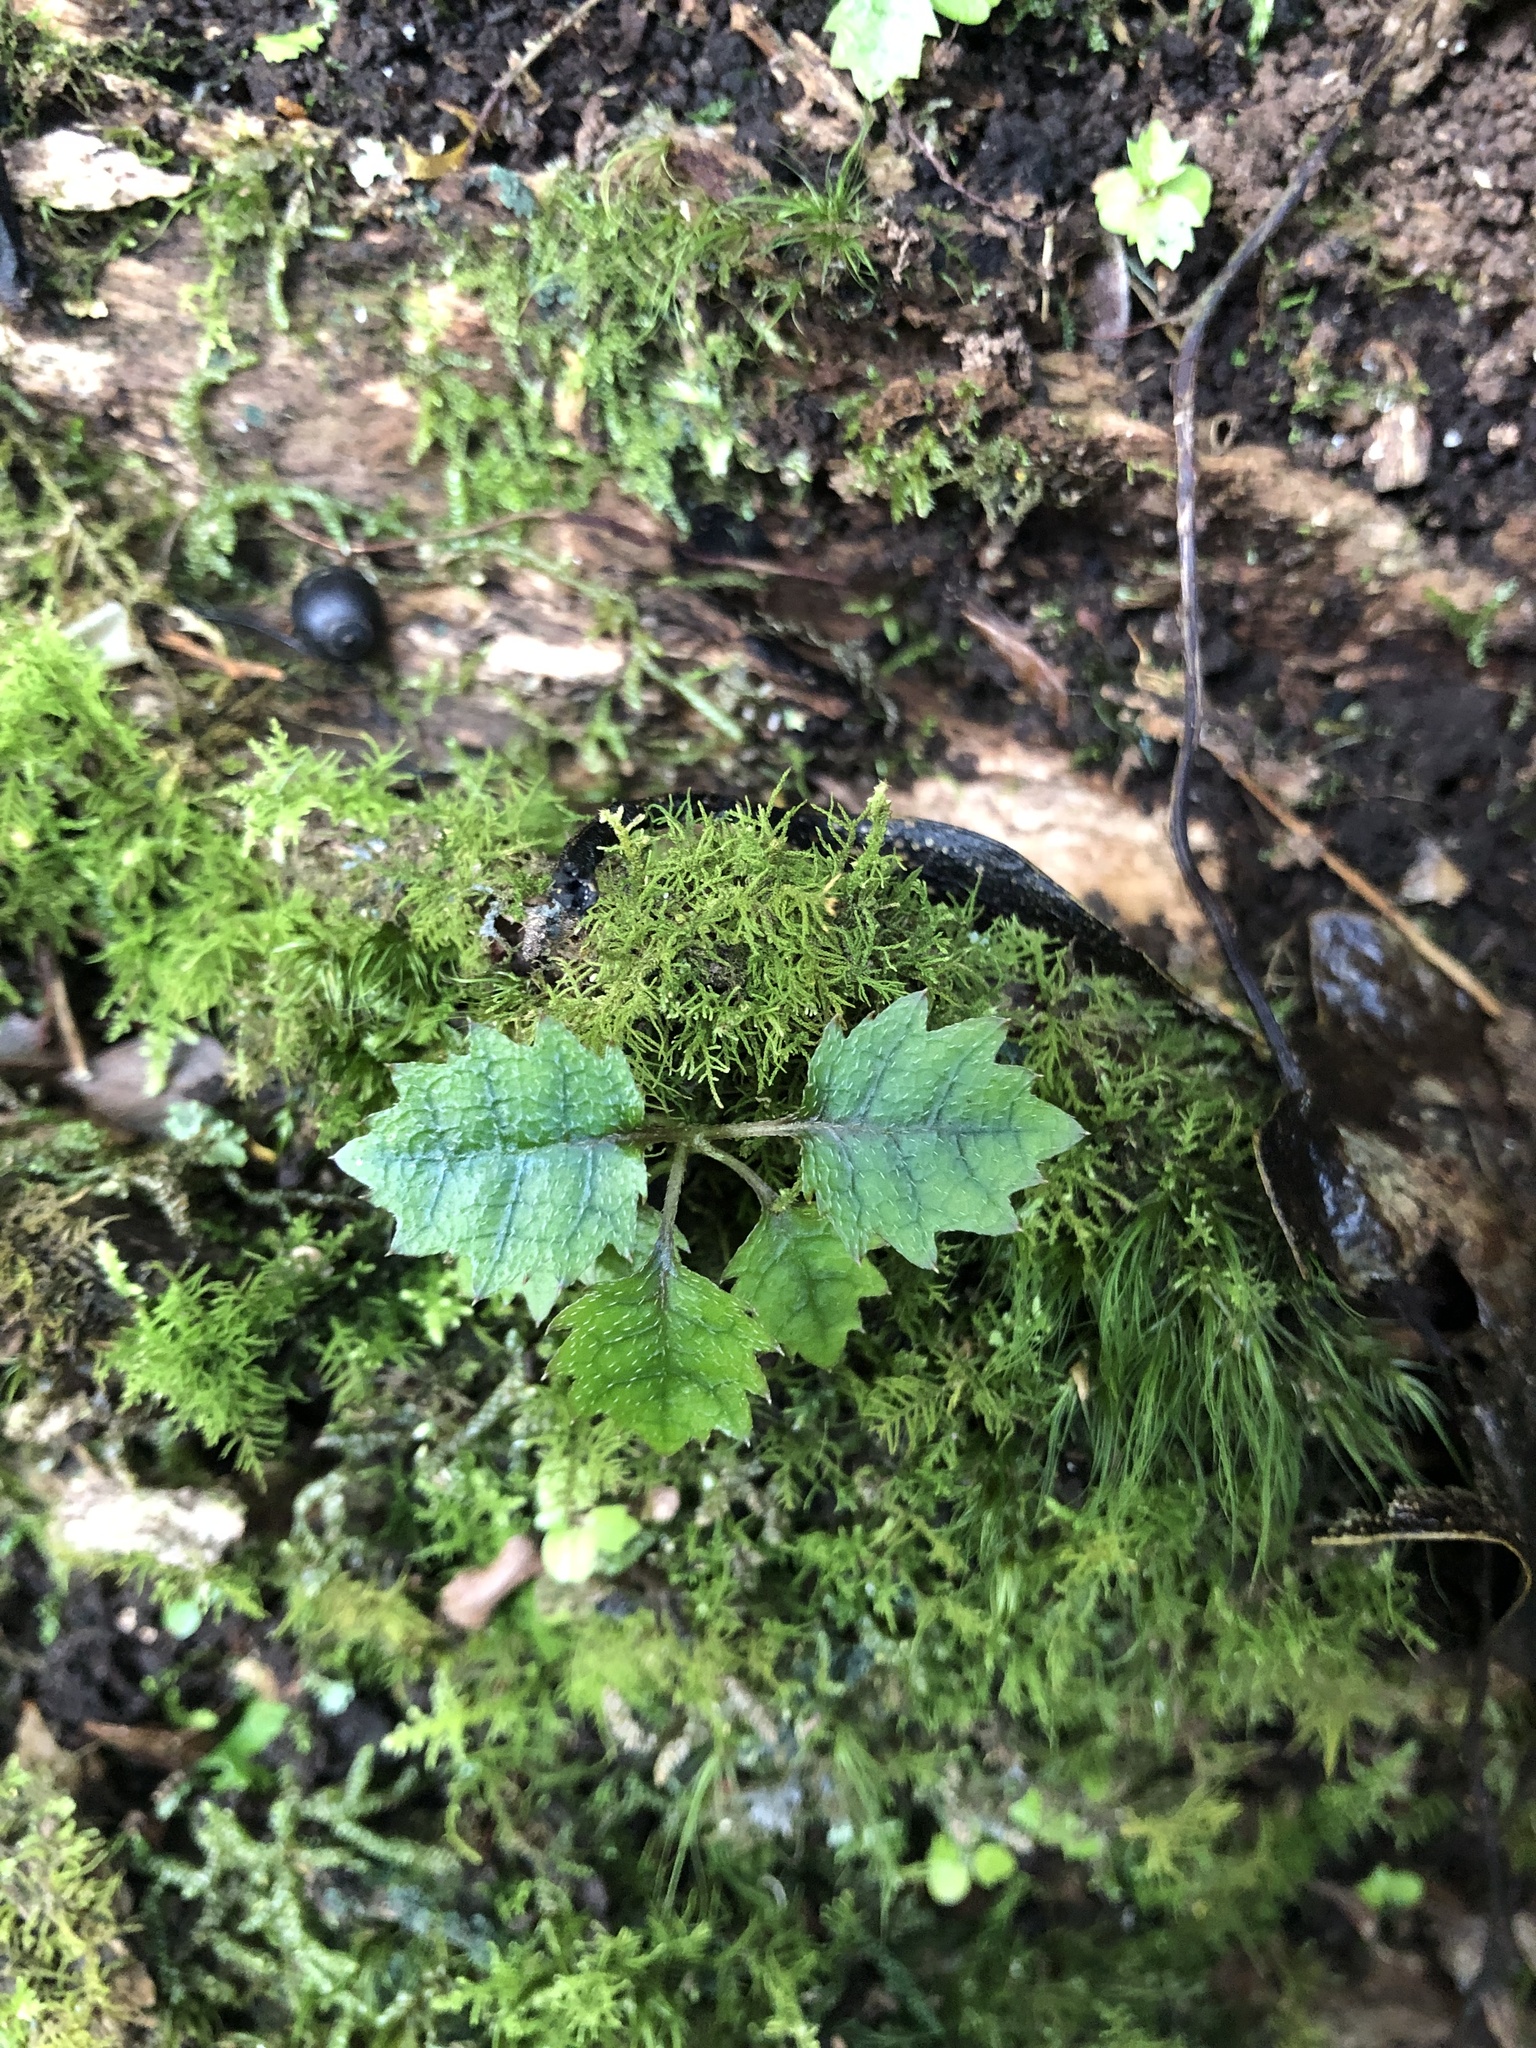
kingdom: Plantae
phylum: Tracheophyta
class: Magnoliopsida
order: Asterales
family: Rousseaceae
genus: Carpodetus
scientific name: Carpodetus serratus
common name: White mapau
